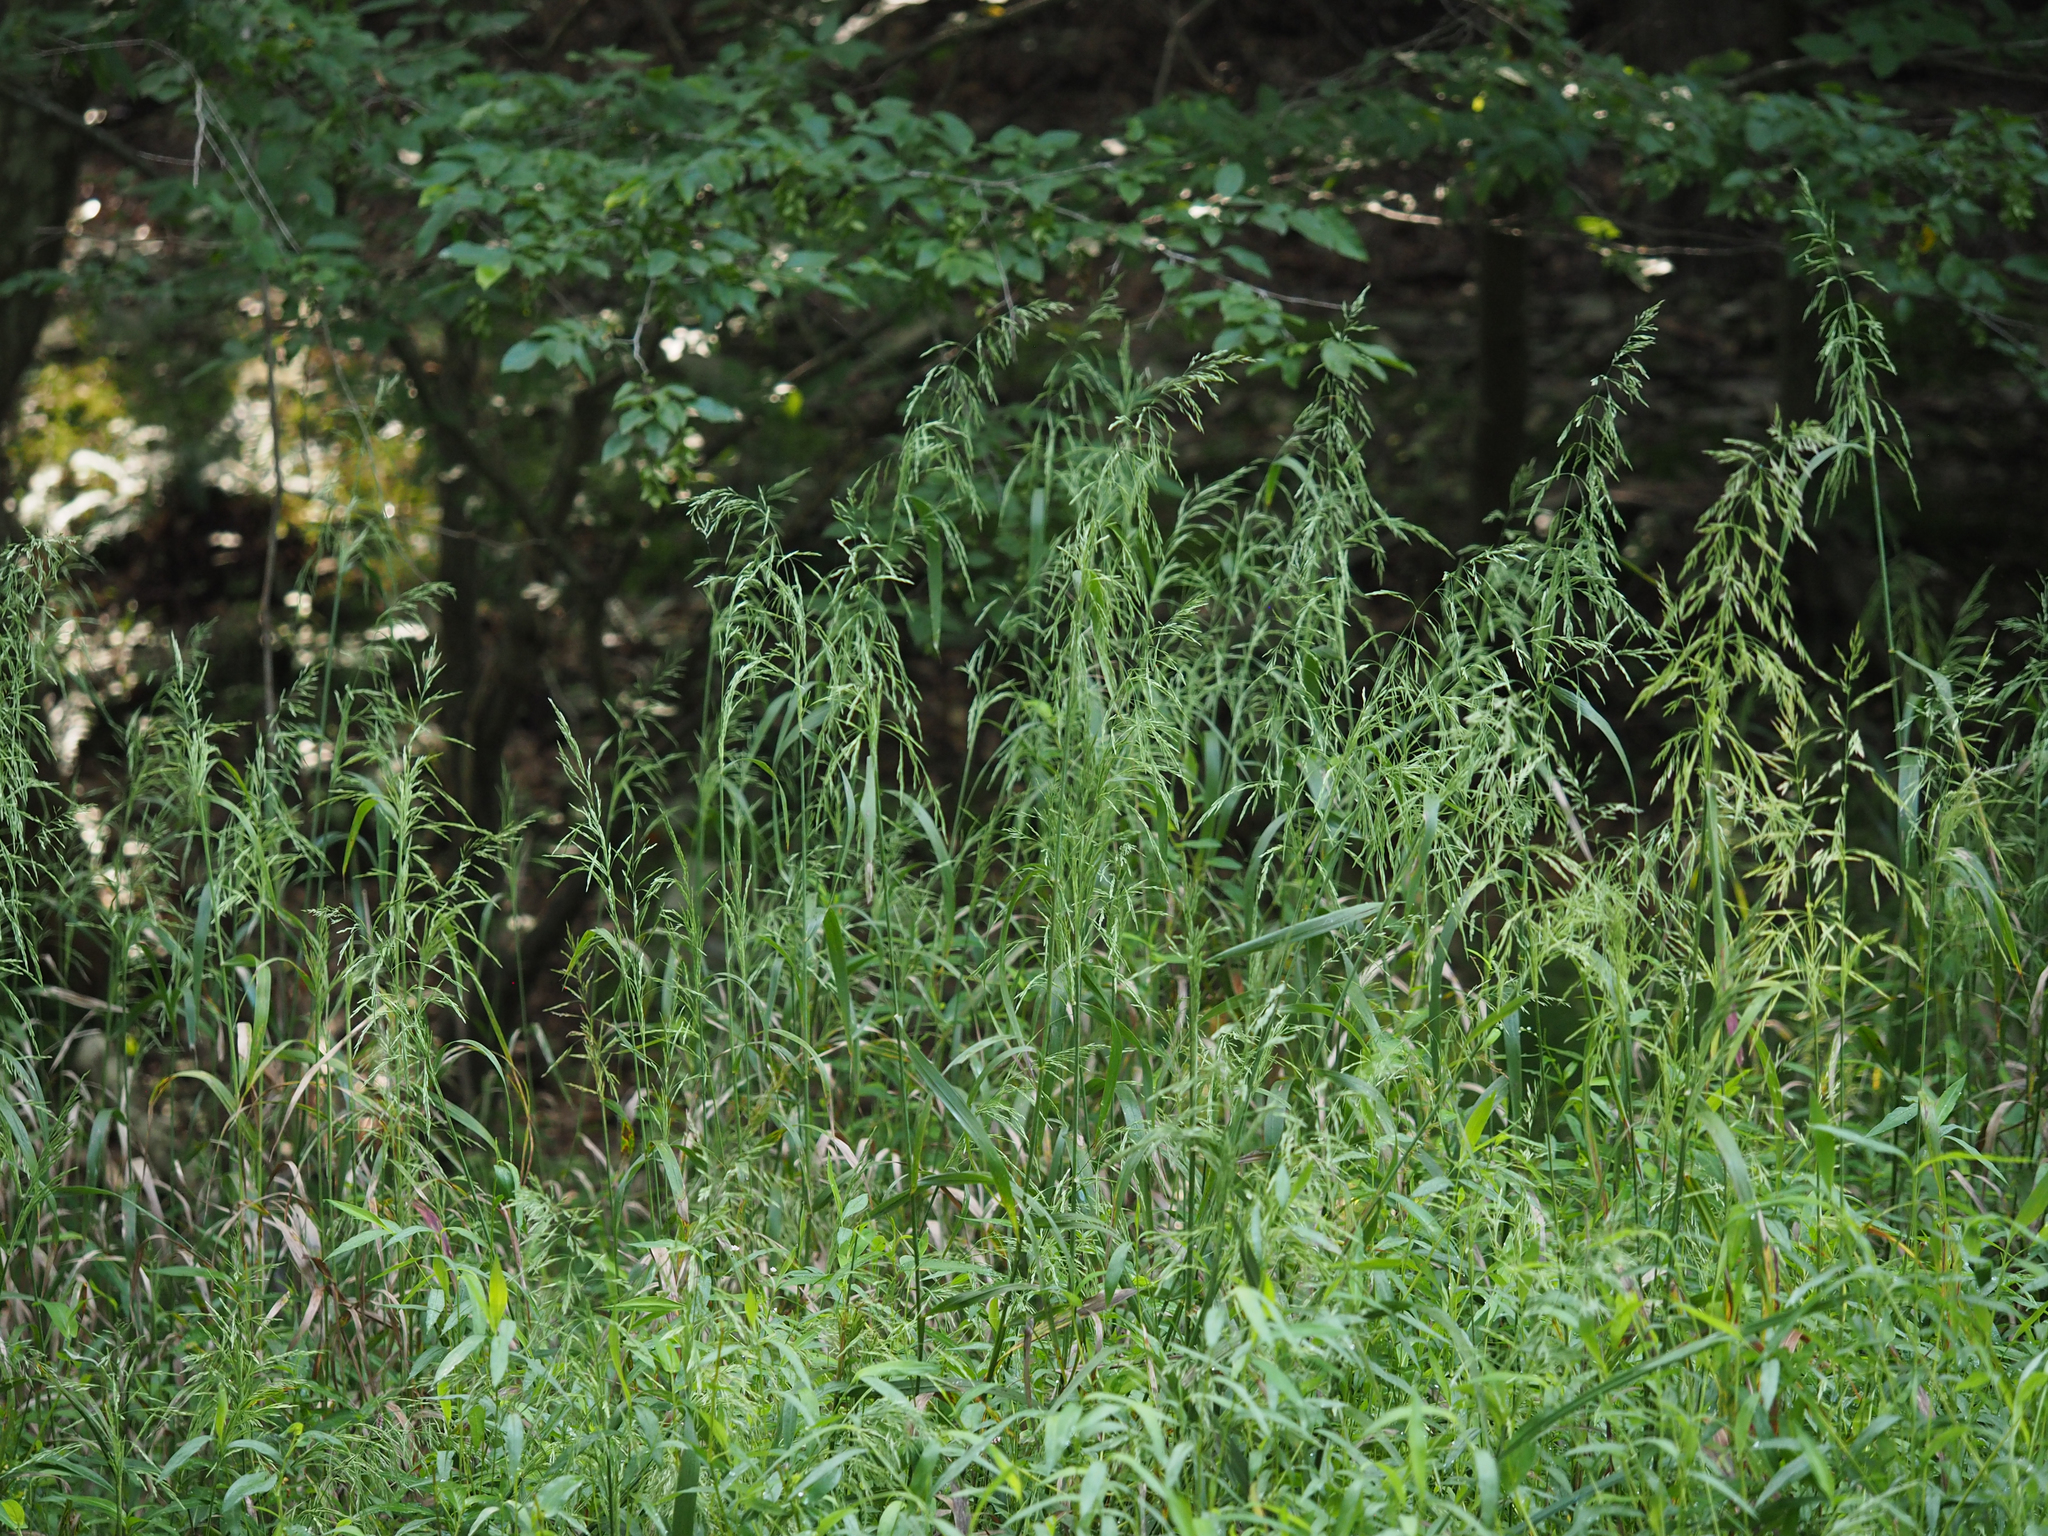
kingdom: Plantae
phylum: Tracheophyta
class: Liliopsida
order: Poales
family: Poaceae
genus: Cinna
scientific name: Cinna arundinacea
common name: Stout woodreed
